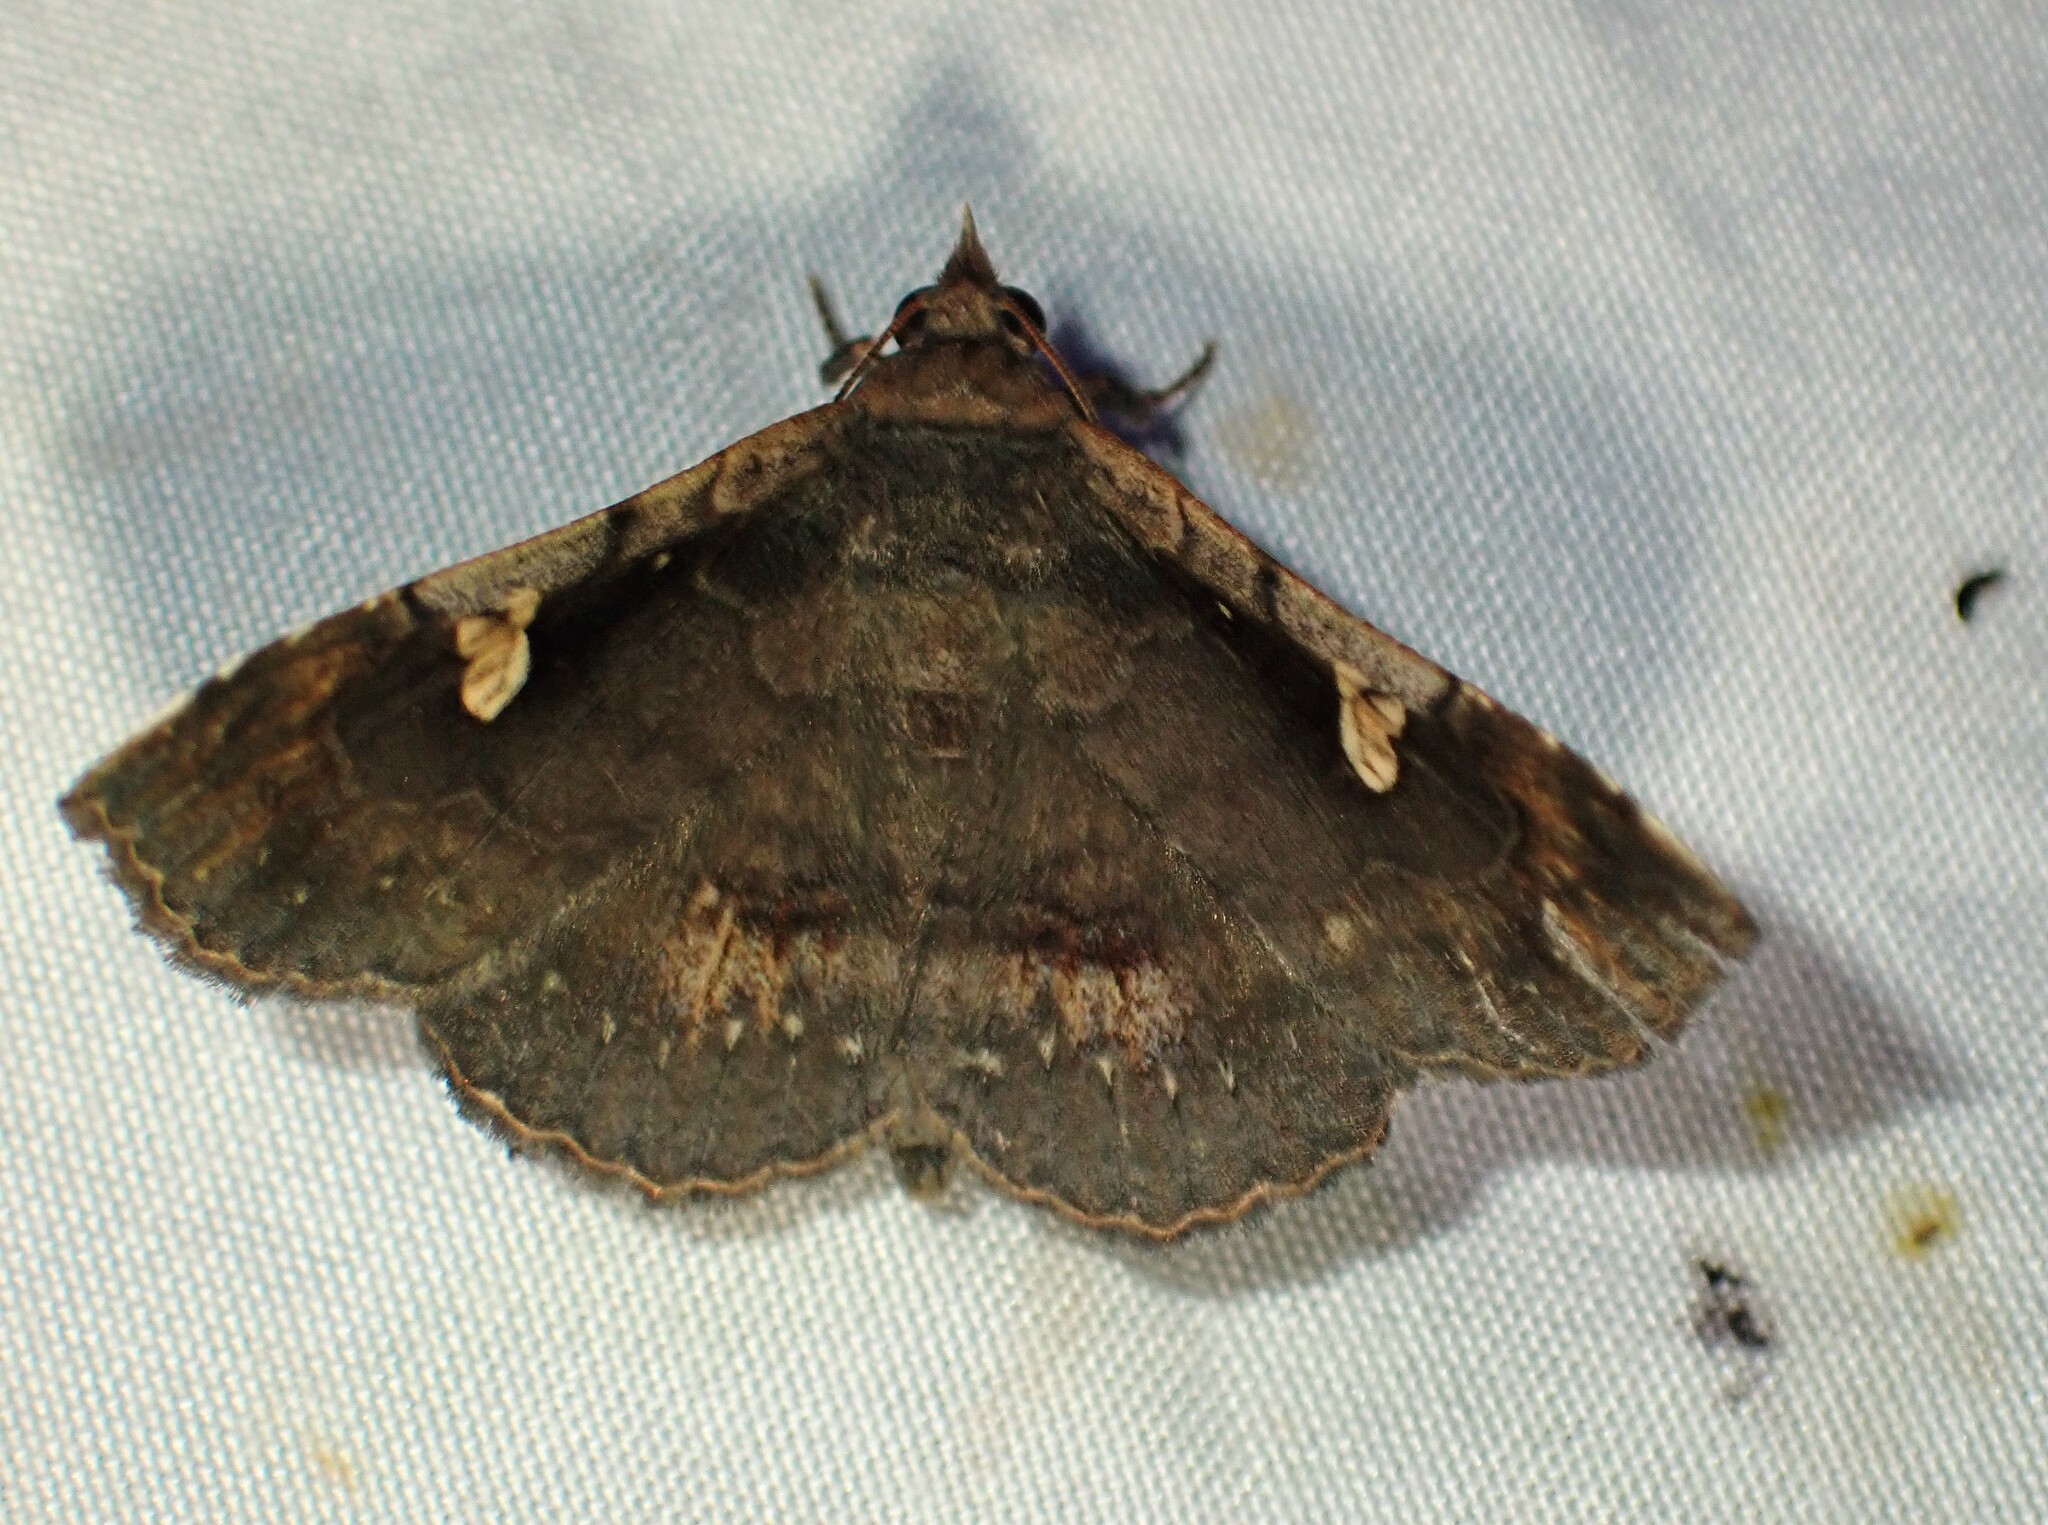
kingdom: Animalia
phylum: Arthropoda
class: Insecta
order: Lepidoptera
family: Erebidae
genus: Azeta
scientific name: Azeta signans
